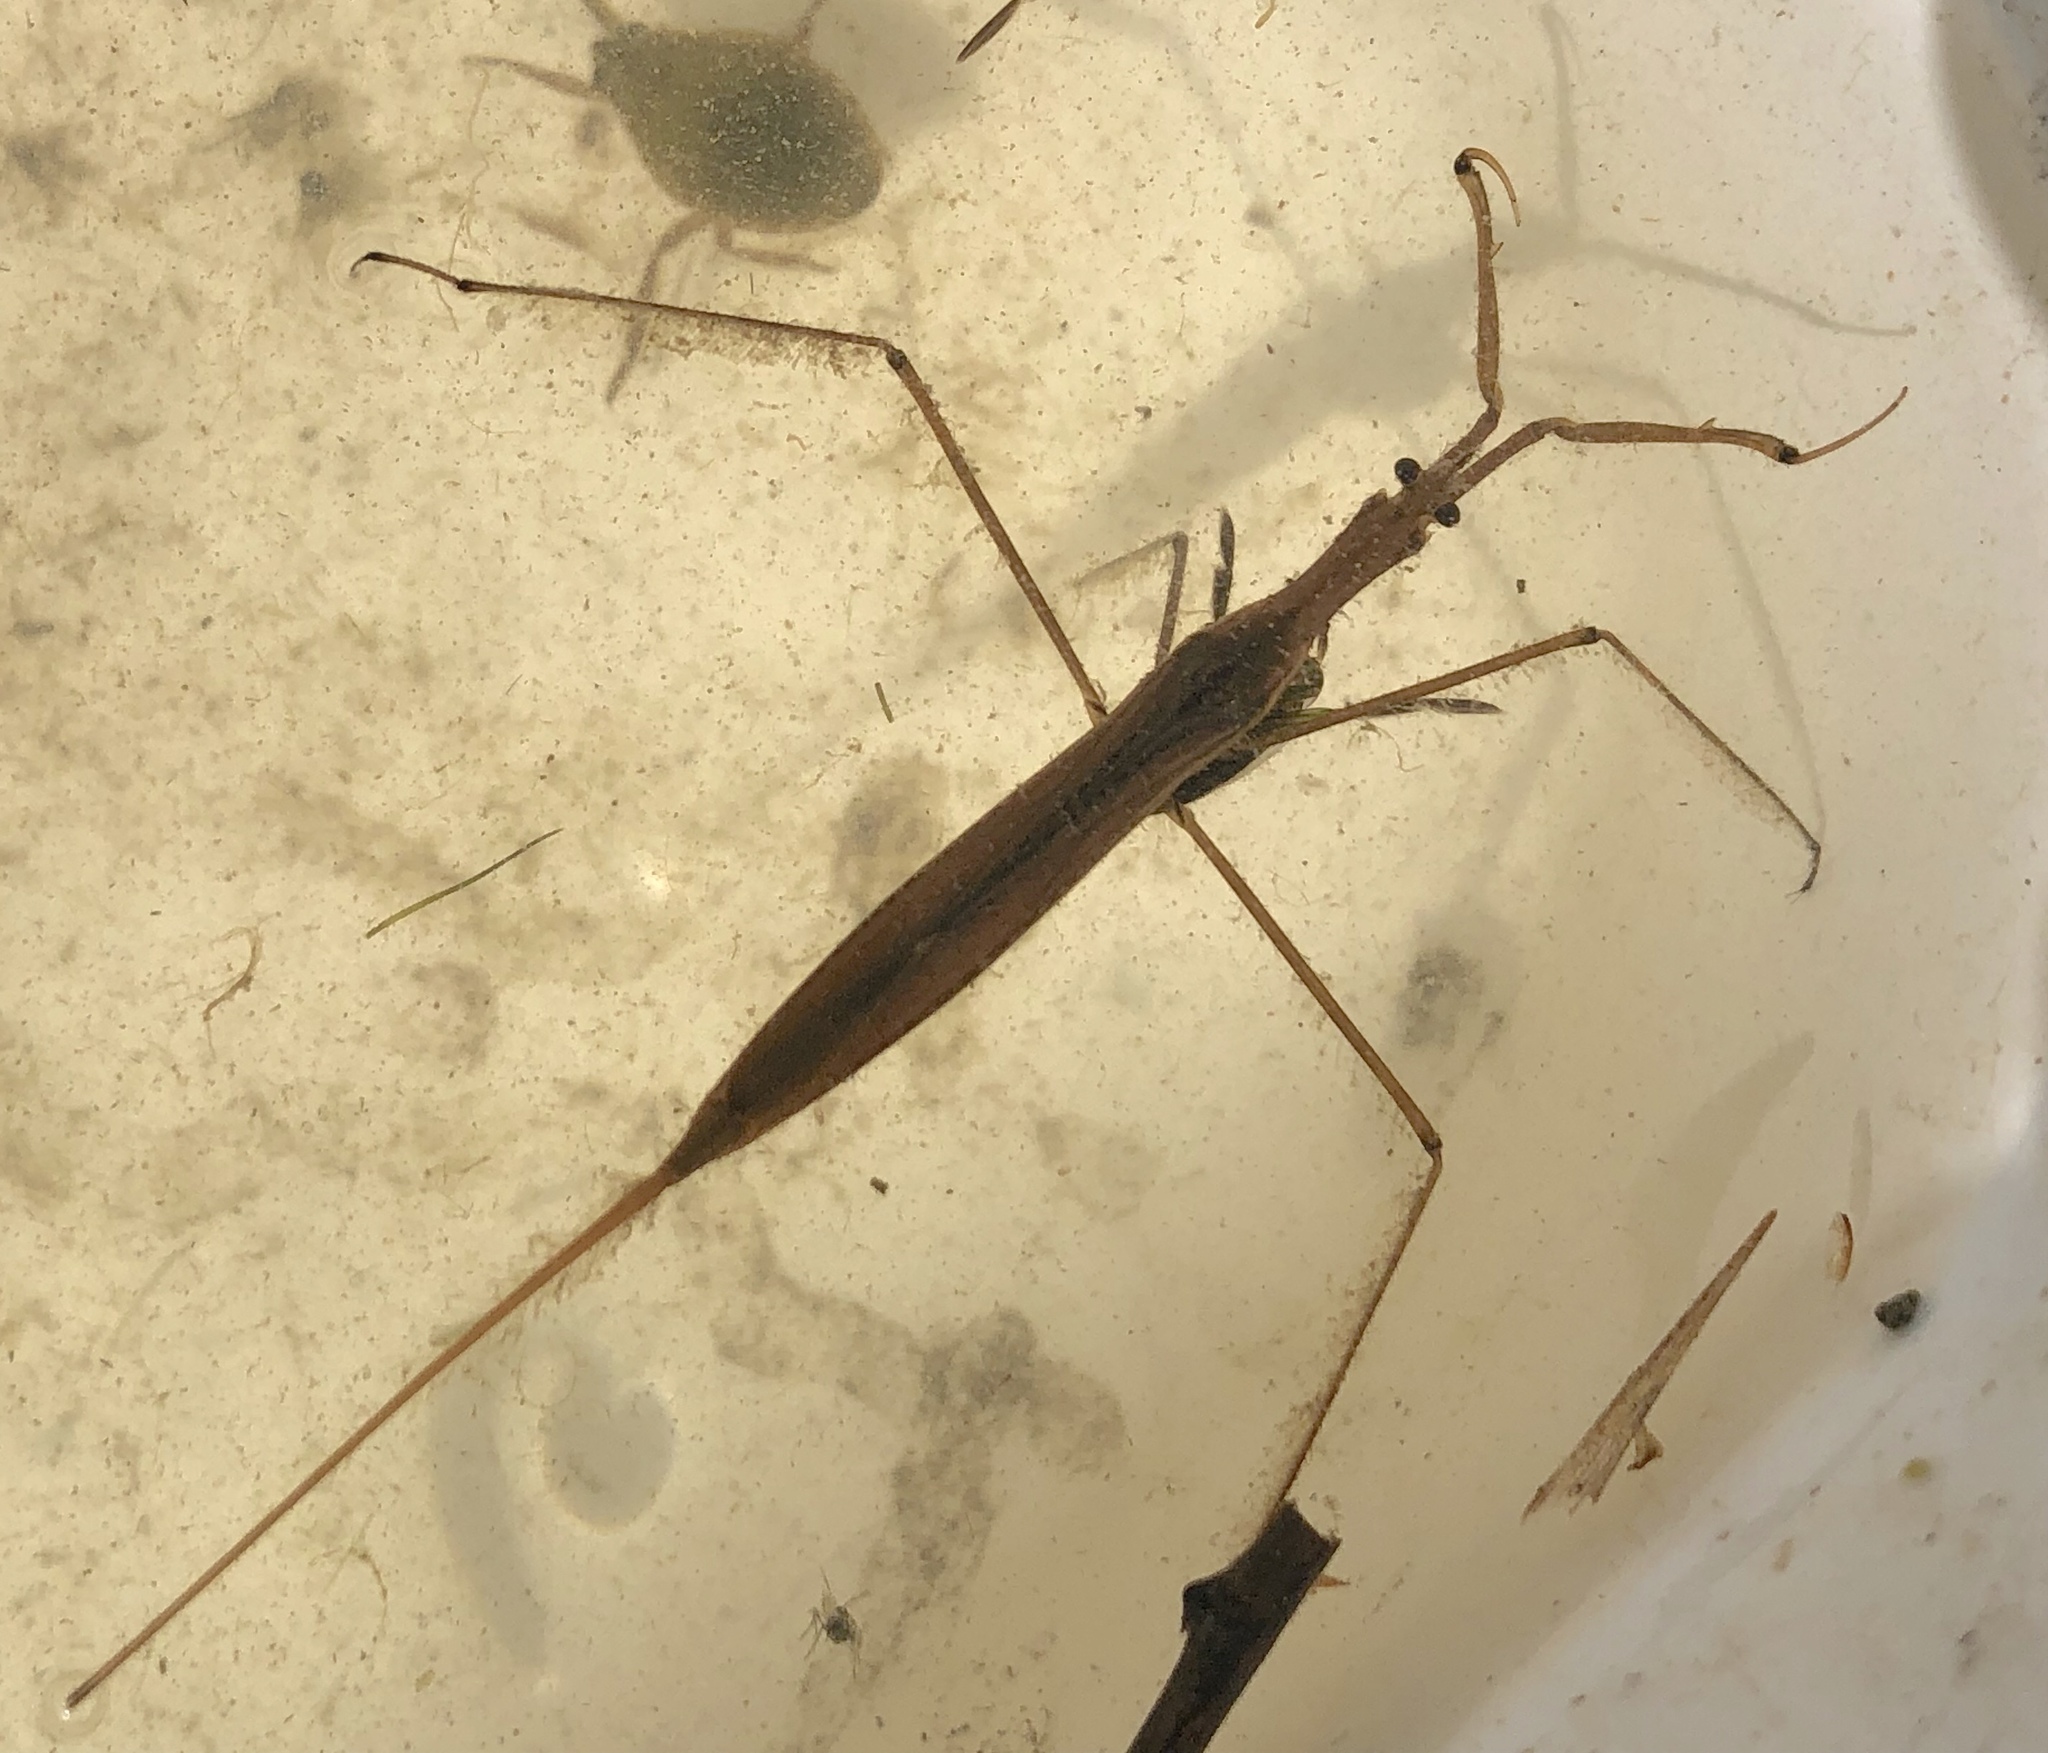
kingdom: Animalia
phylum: Arthropoda
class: Insecta
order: Hemiptera
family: Nepidae
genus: Ranatra
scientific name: Ranatra fusca
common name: Brown waterscorpion
